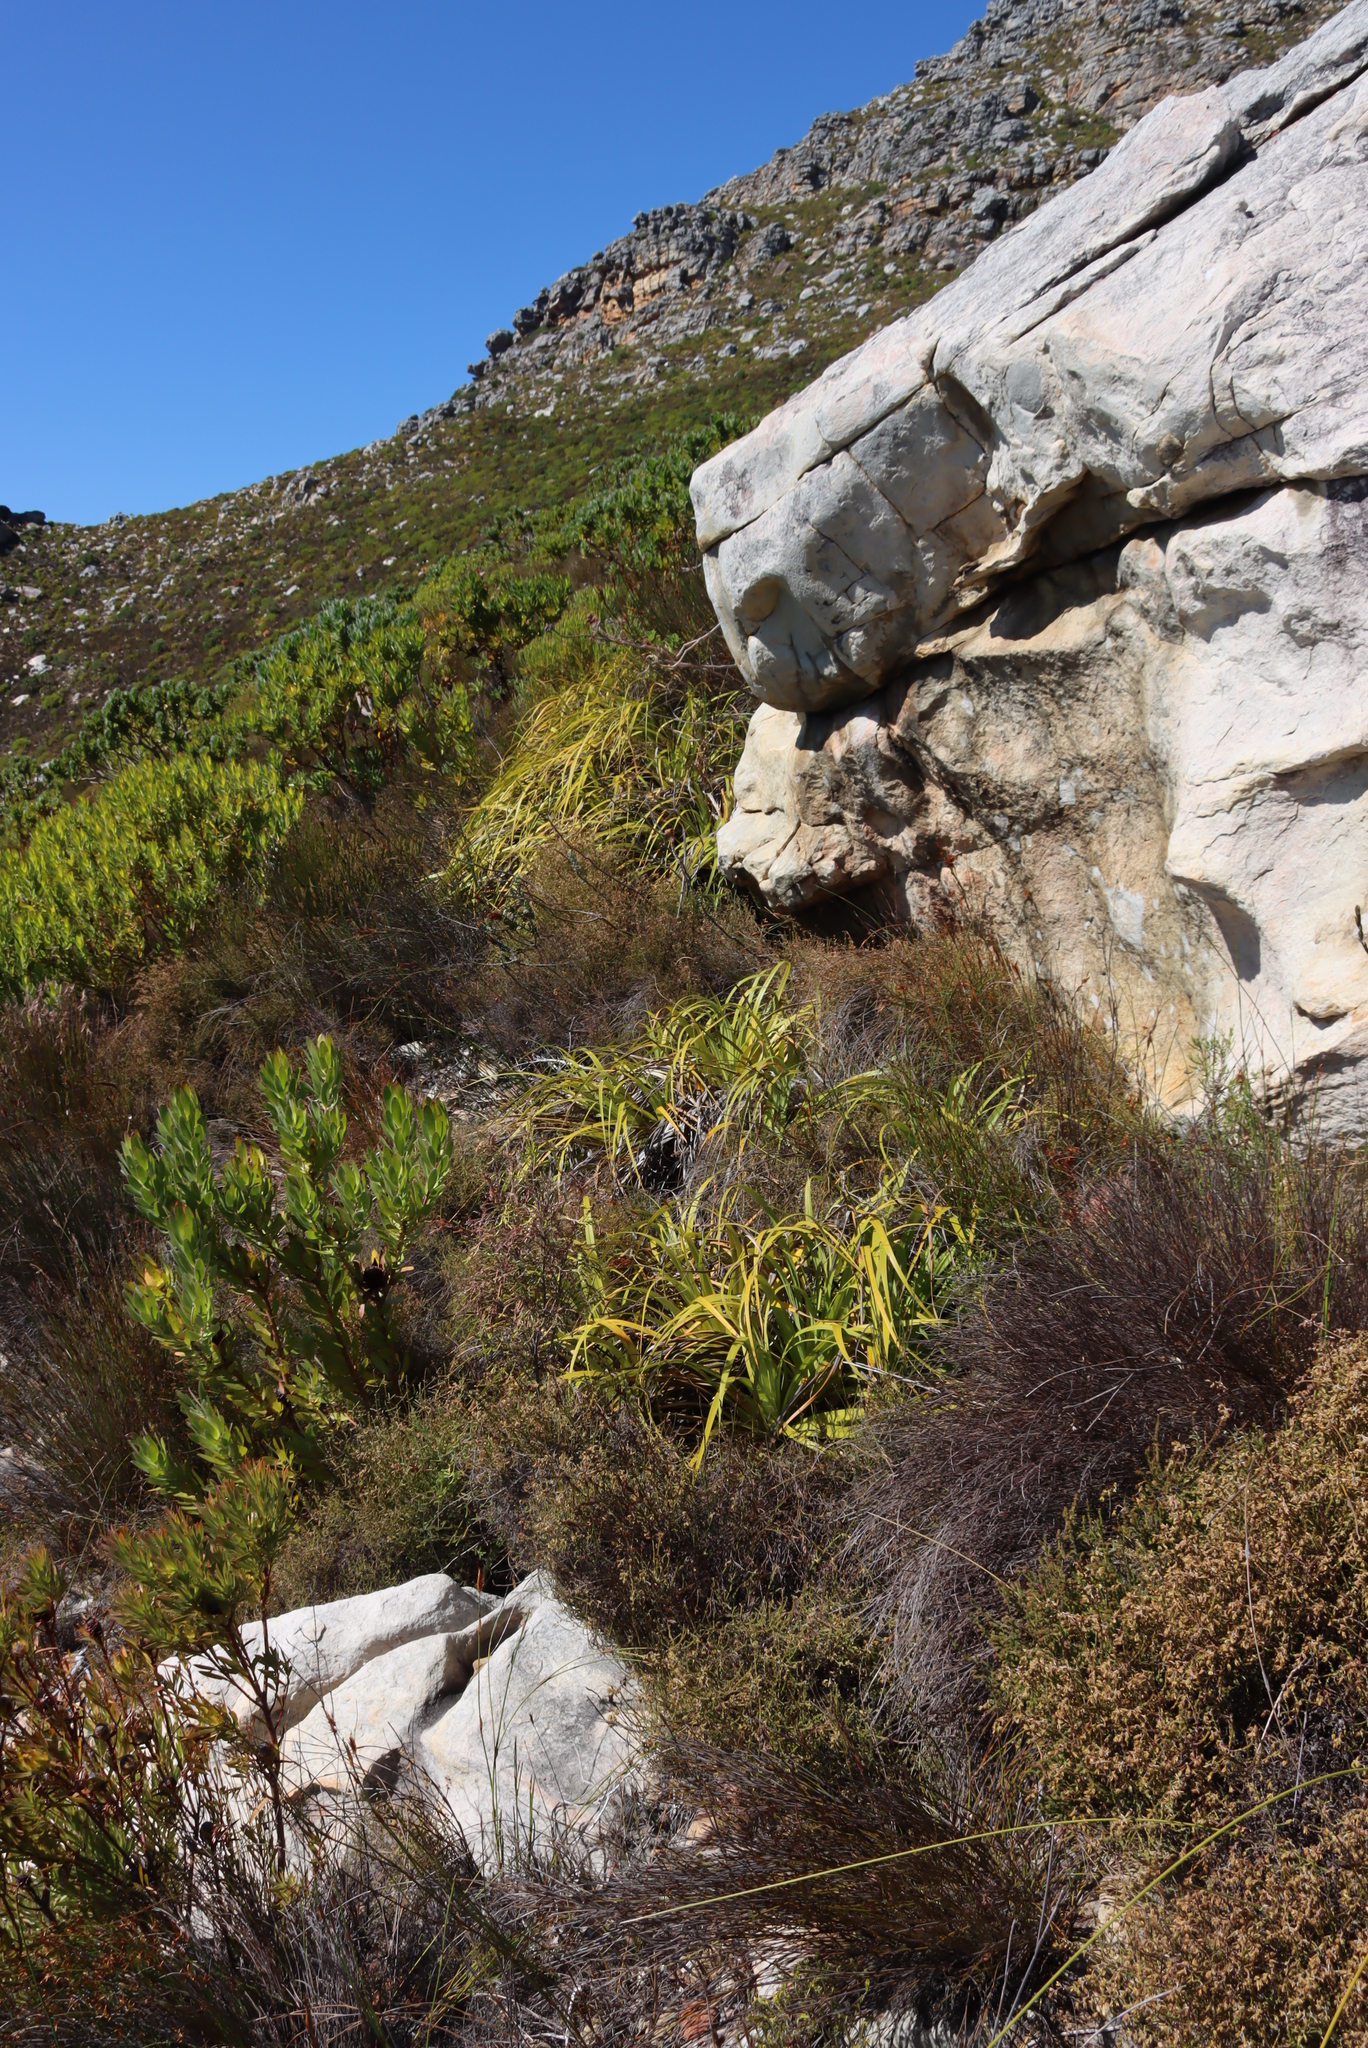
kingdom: Plantae
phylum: Tracheophyta
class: Liliopsida
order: Poales
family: Cyperaceae
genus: Tetraria
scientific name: Tetraria thermalis
